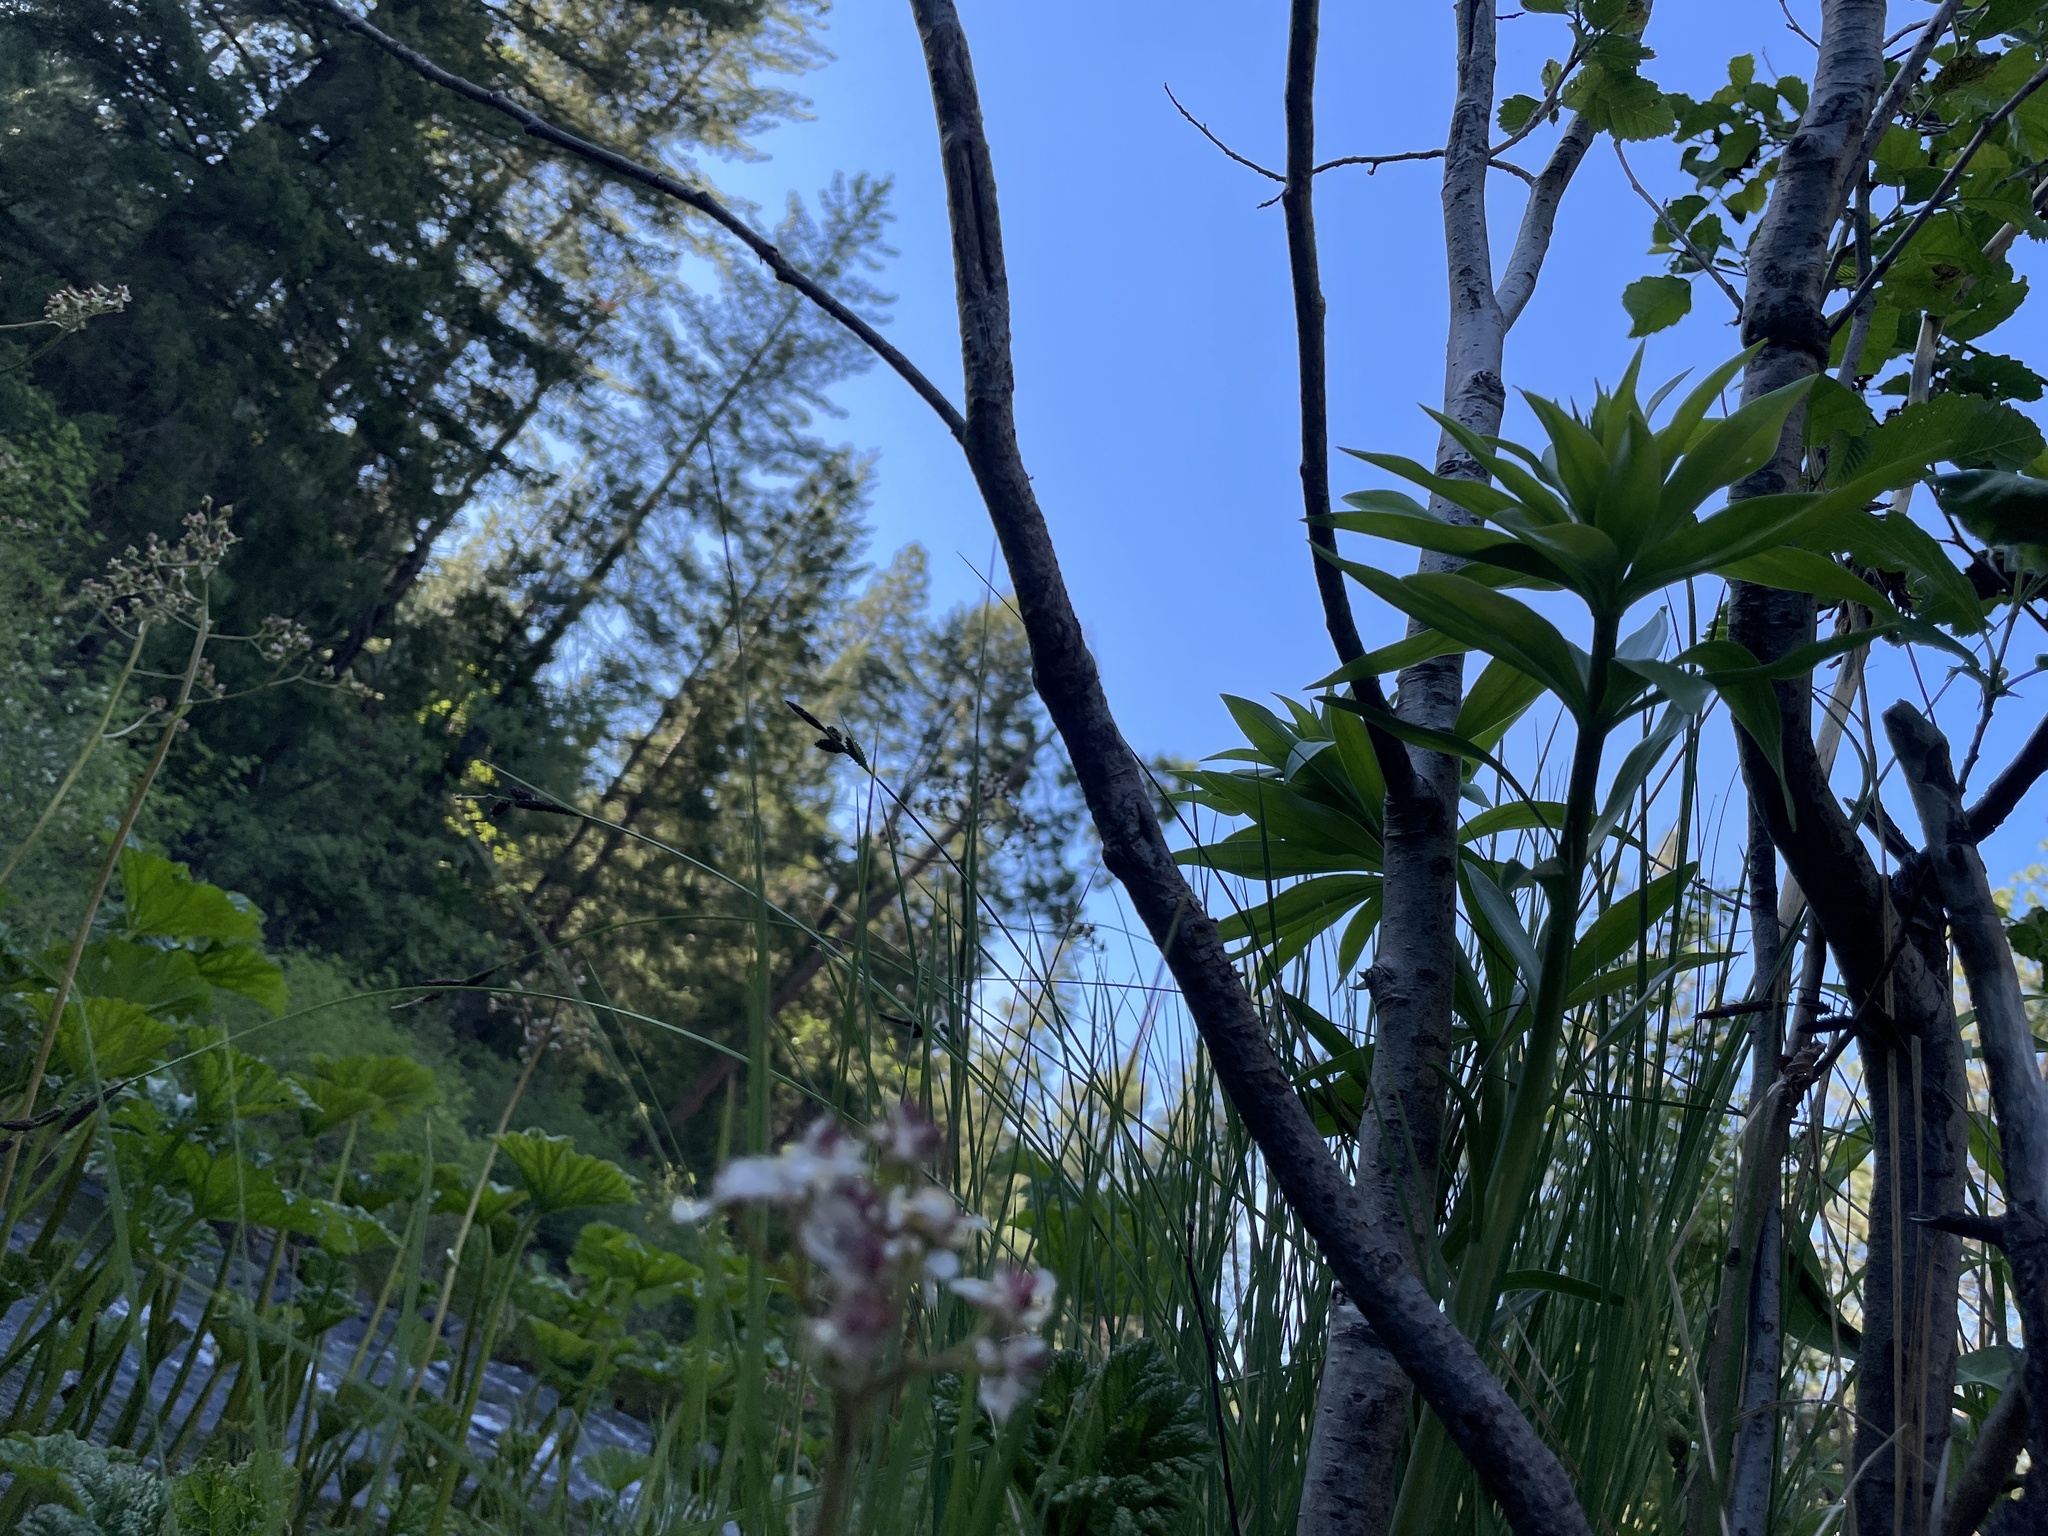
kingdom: Plantae
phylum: Tracheophyta
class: Magnoliopsida
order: Saxifragales
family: Saxifragaceae
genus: Darmera
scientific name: Darmera peltata
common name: Indian-rhubarb
